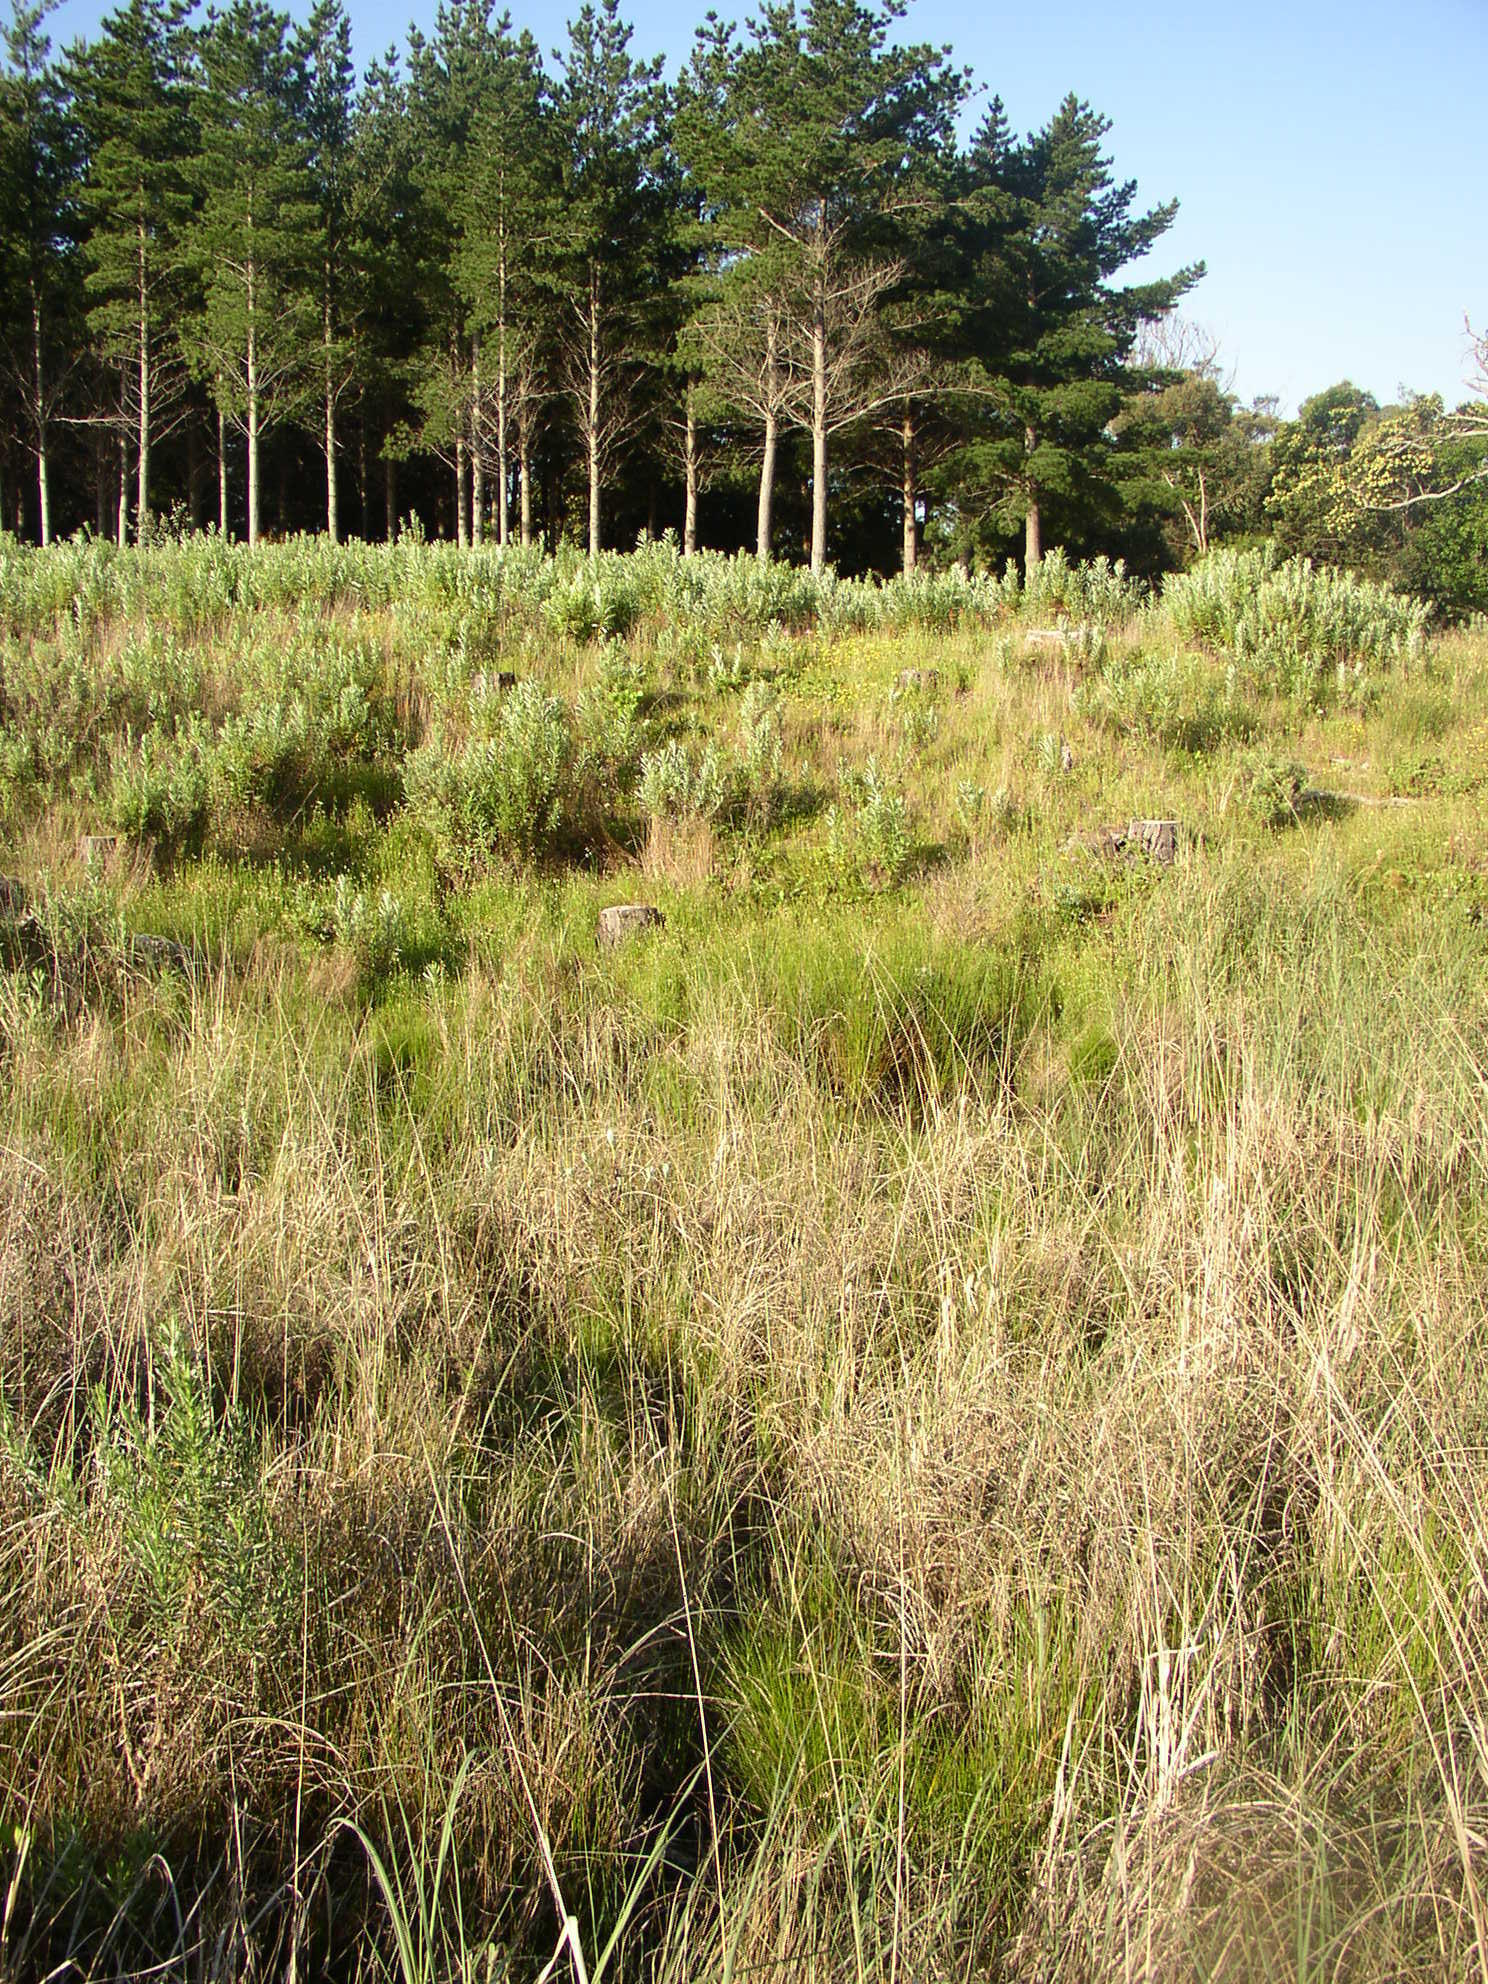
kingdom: Plantae
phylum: Tracheophyta
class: Magnoliopsida
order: Asterales
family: Asteraceae
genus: Senecio
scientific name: Senecio pterophorus
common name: Shoddy ragwort
